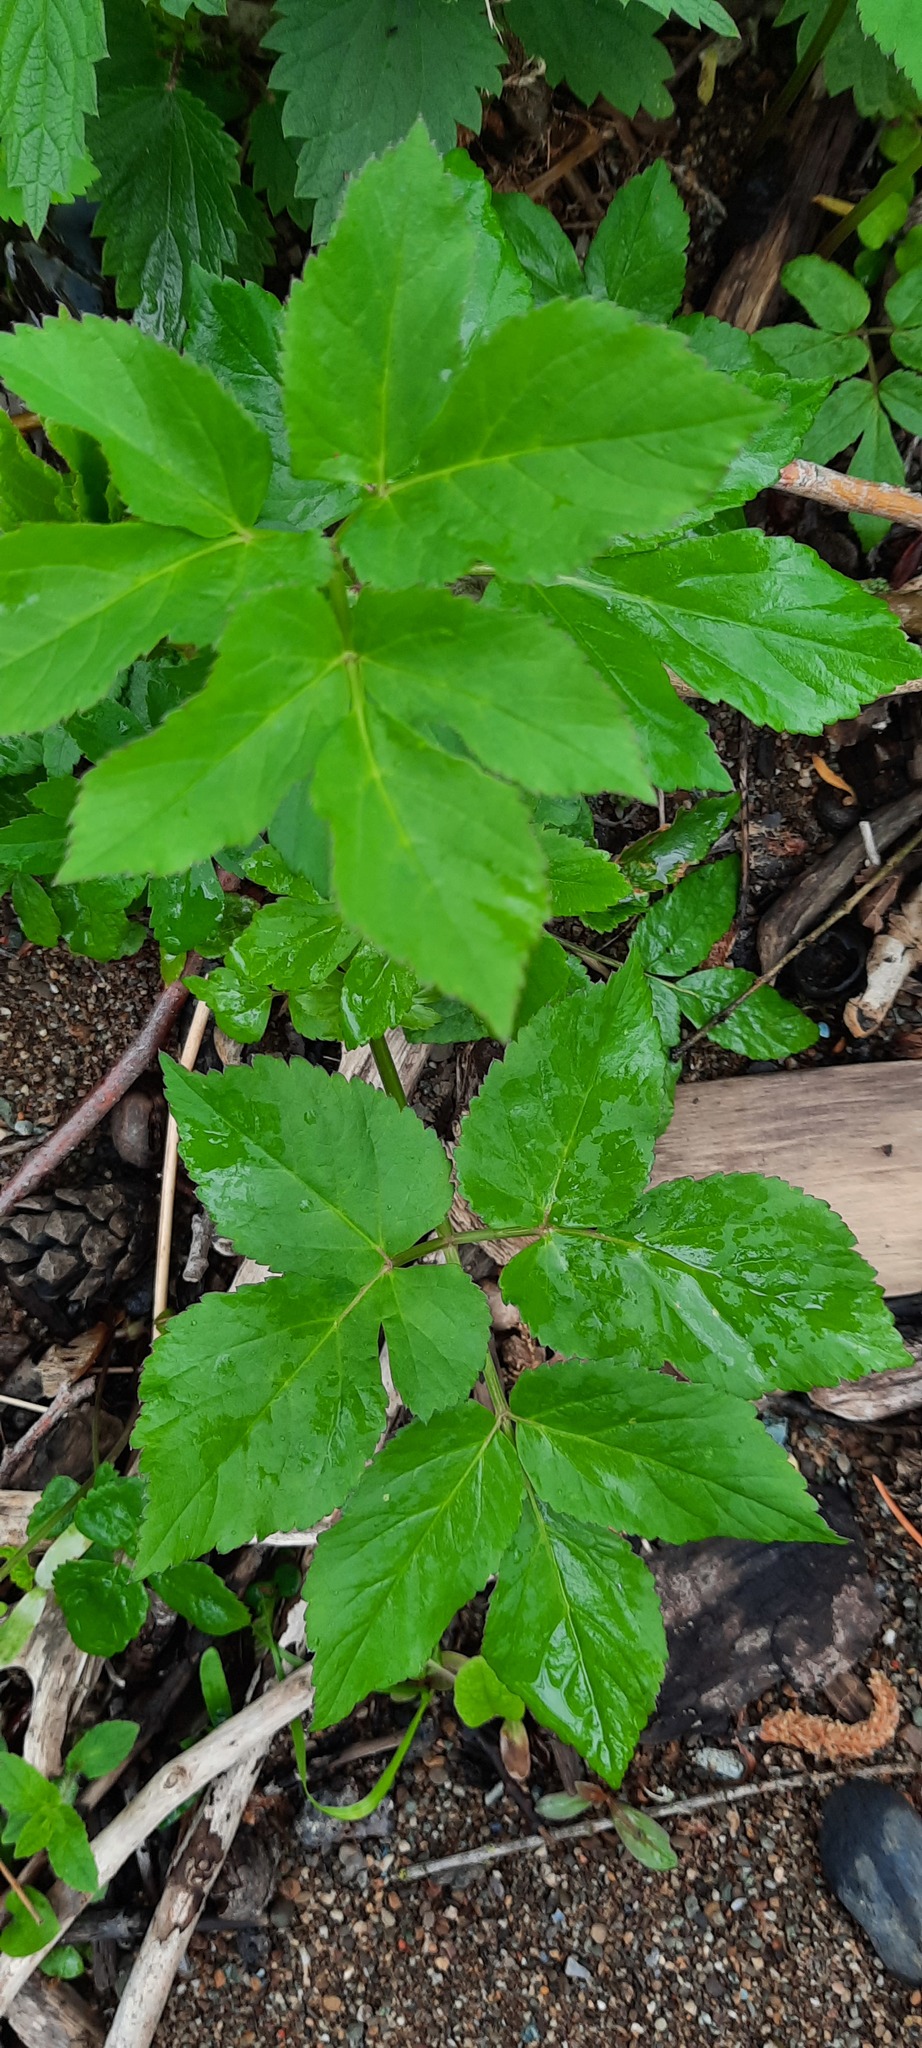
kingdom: Plantae
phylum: Tracheophyta
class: Magnoliopsida
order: Apiales
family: Apiaceae
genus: Aegopodium
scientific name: Aegopodium podagraria
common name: Ground-elder
